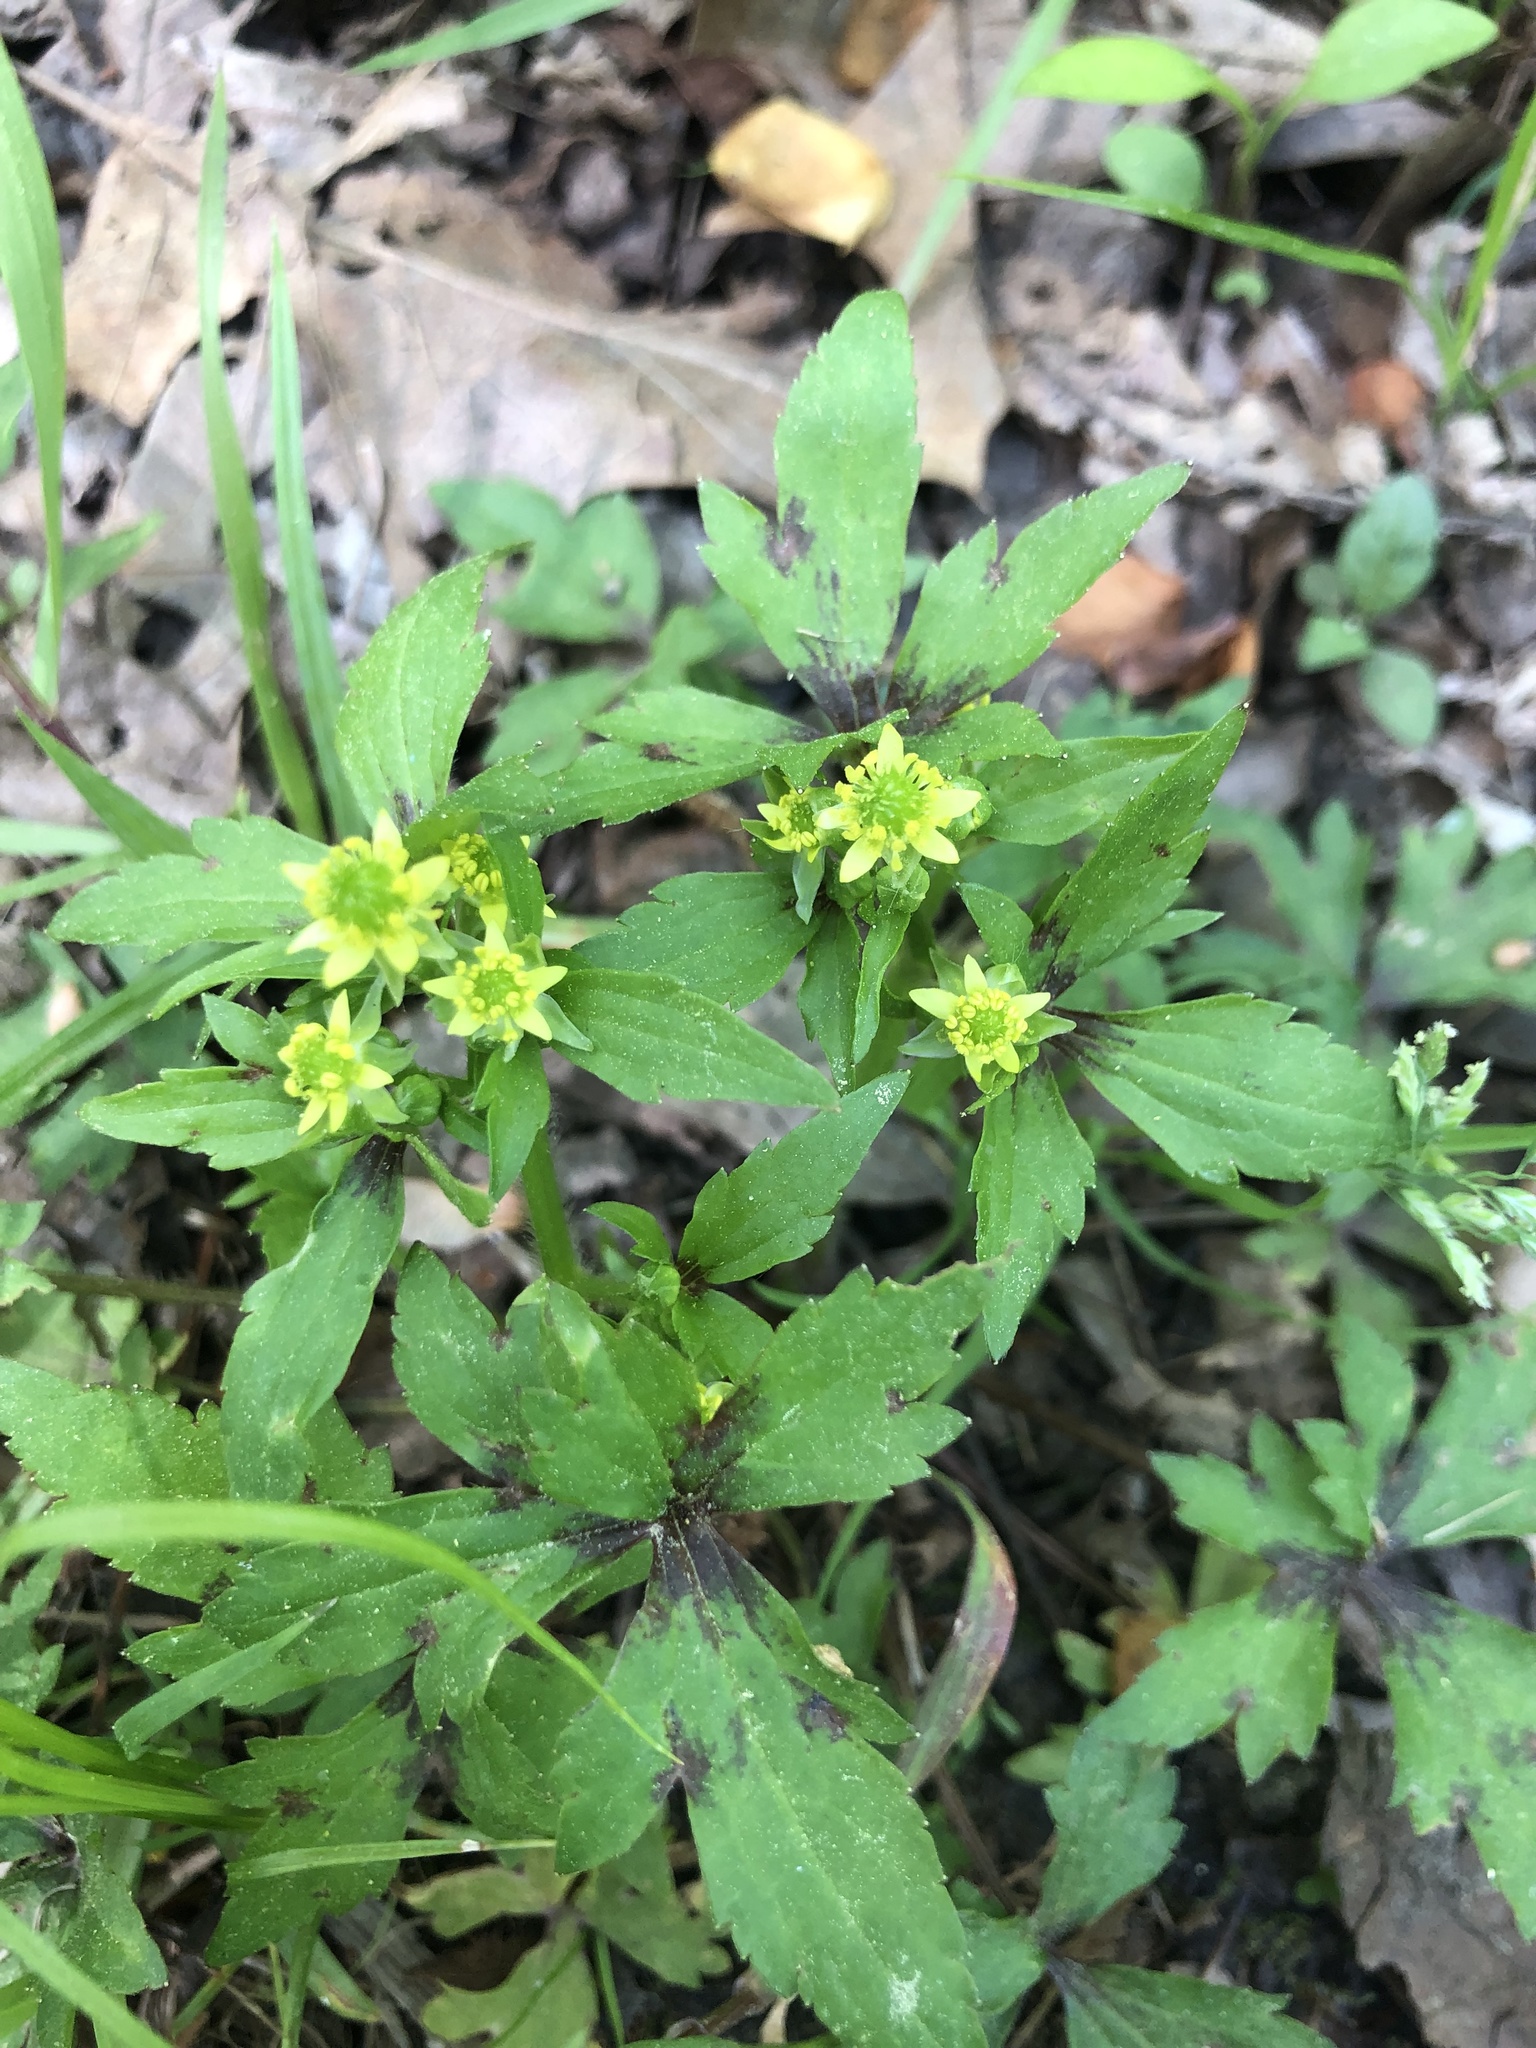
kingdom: Plantae
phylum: Tracheophyta
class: Magnoliopsida
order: Ranunculales
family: Ranunculaceae
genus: Ranunculus
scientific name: Ranunculus recurvatus
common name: Blisterwort
